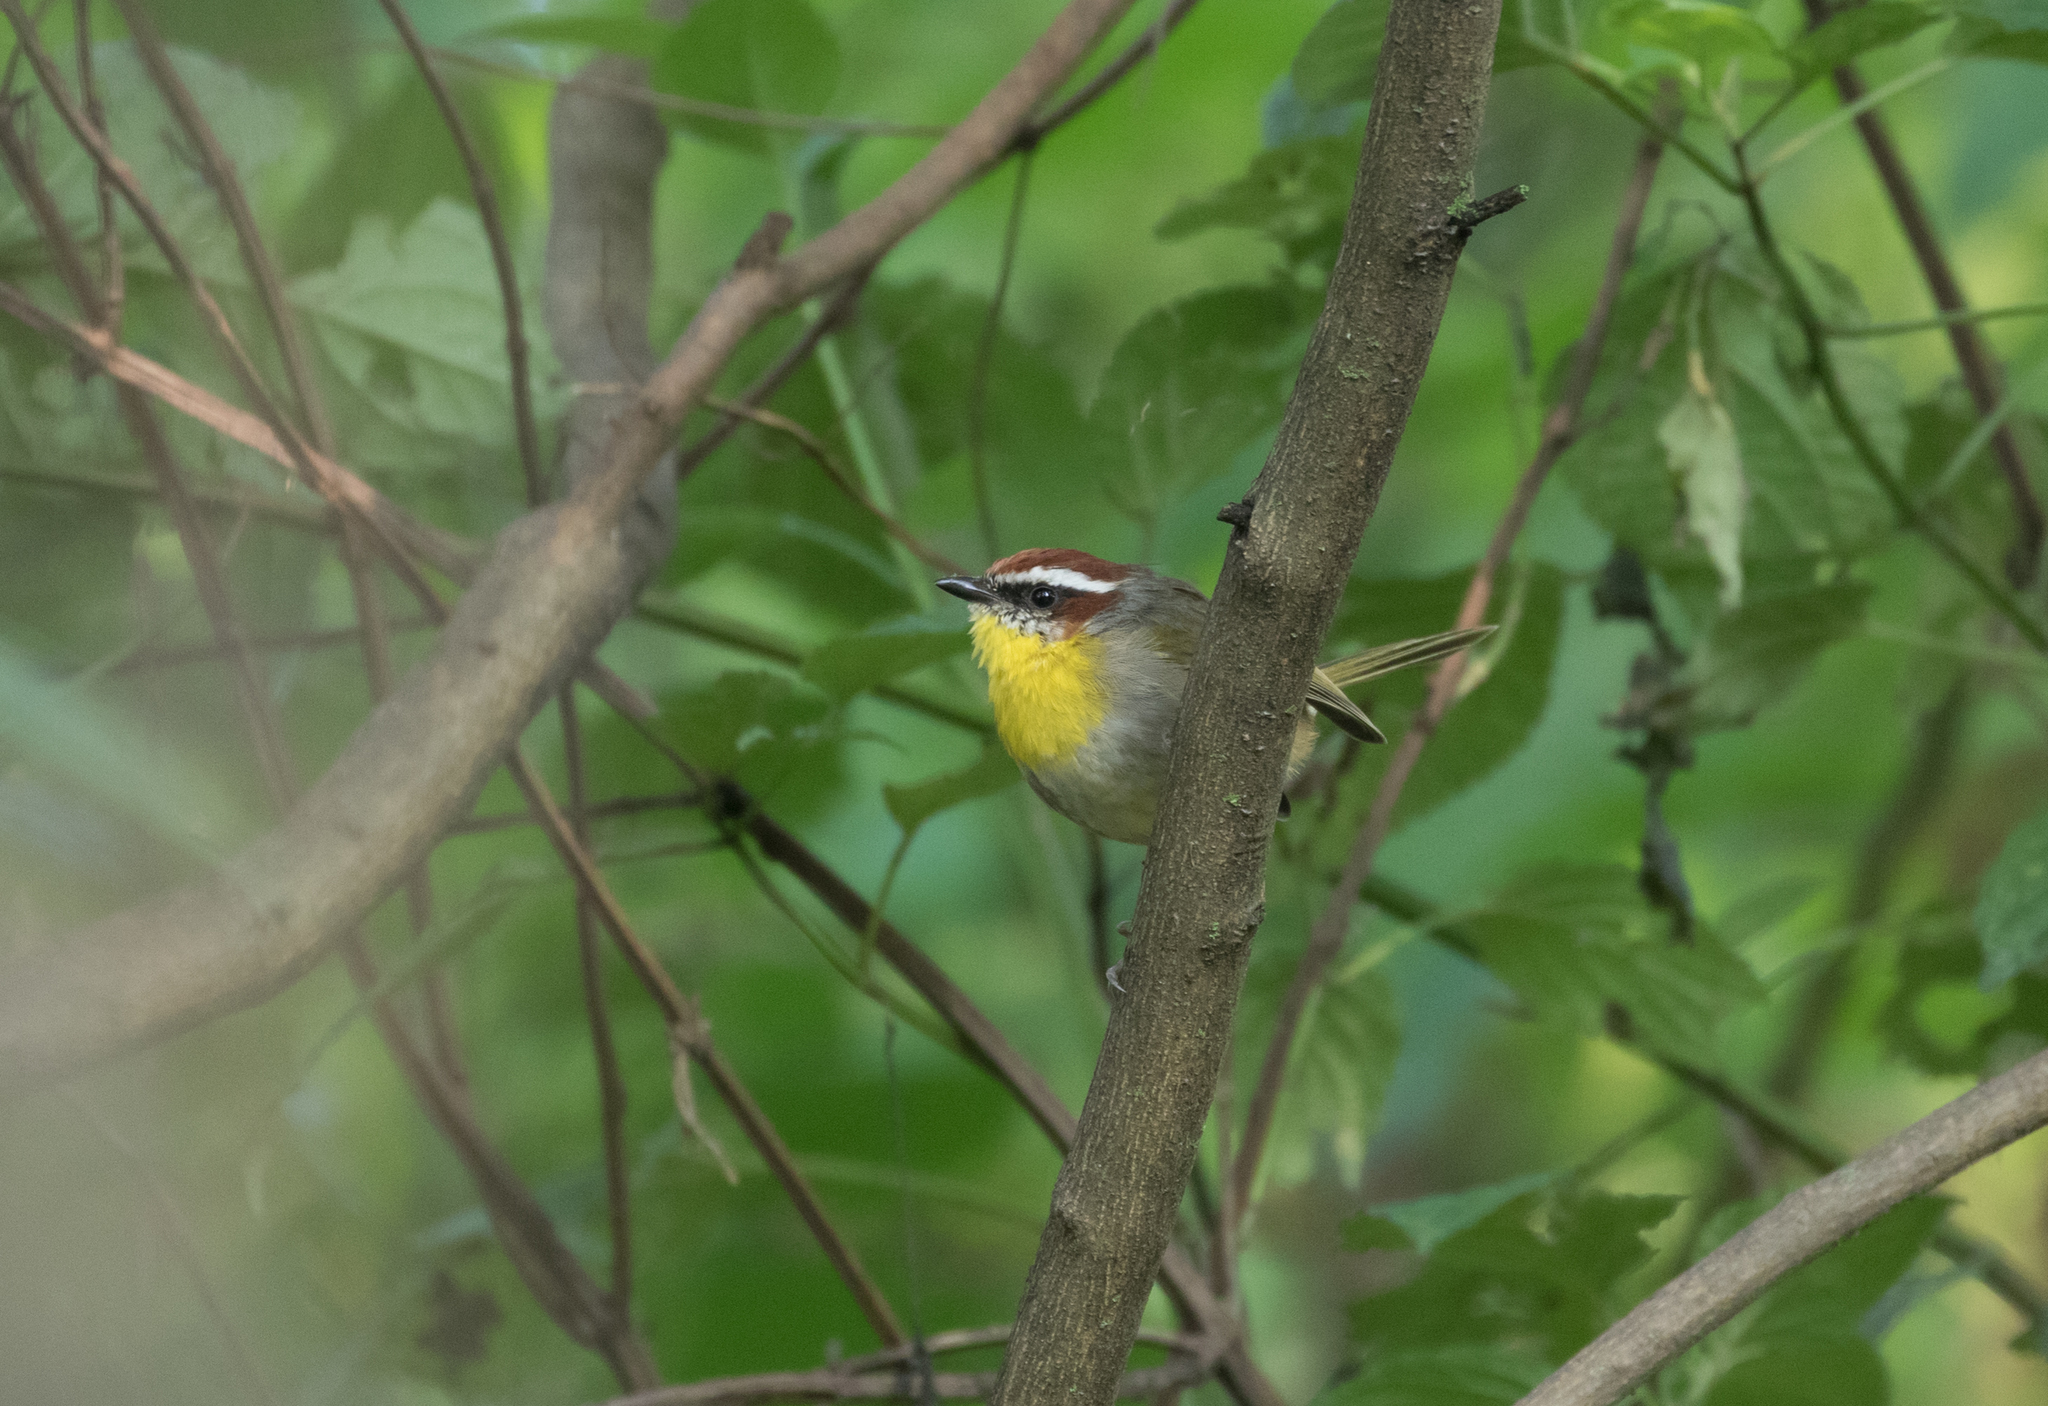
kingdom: Animalia
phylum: Chordata
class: Aves
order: Passeriformes
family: Parulidae
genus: Basileuterus
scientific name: Basileuterus rufifrons
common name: Rufous-capped warbler
